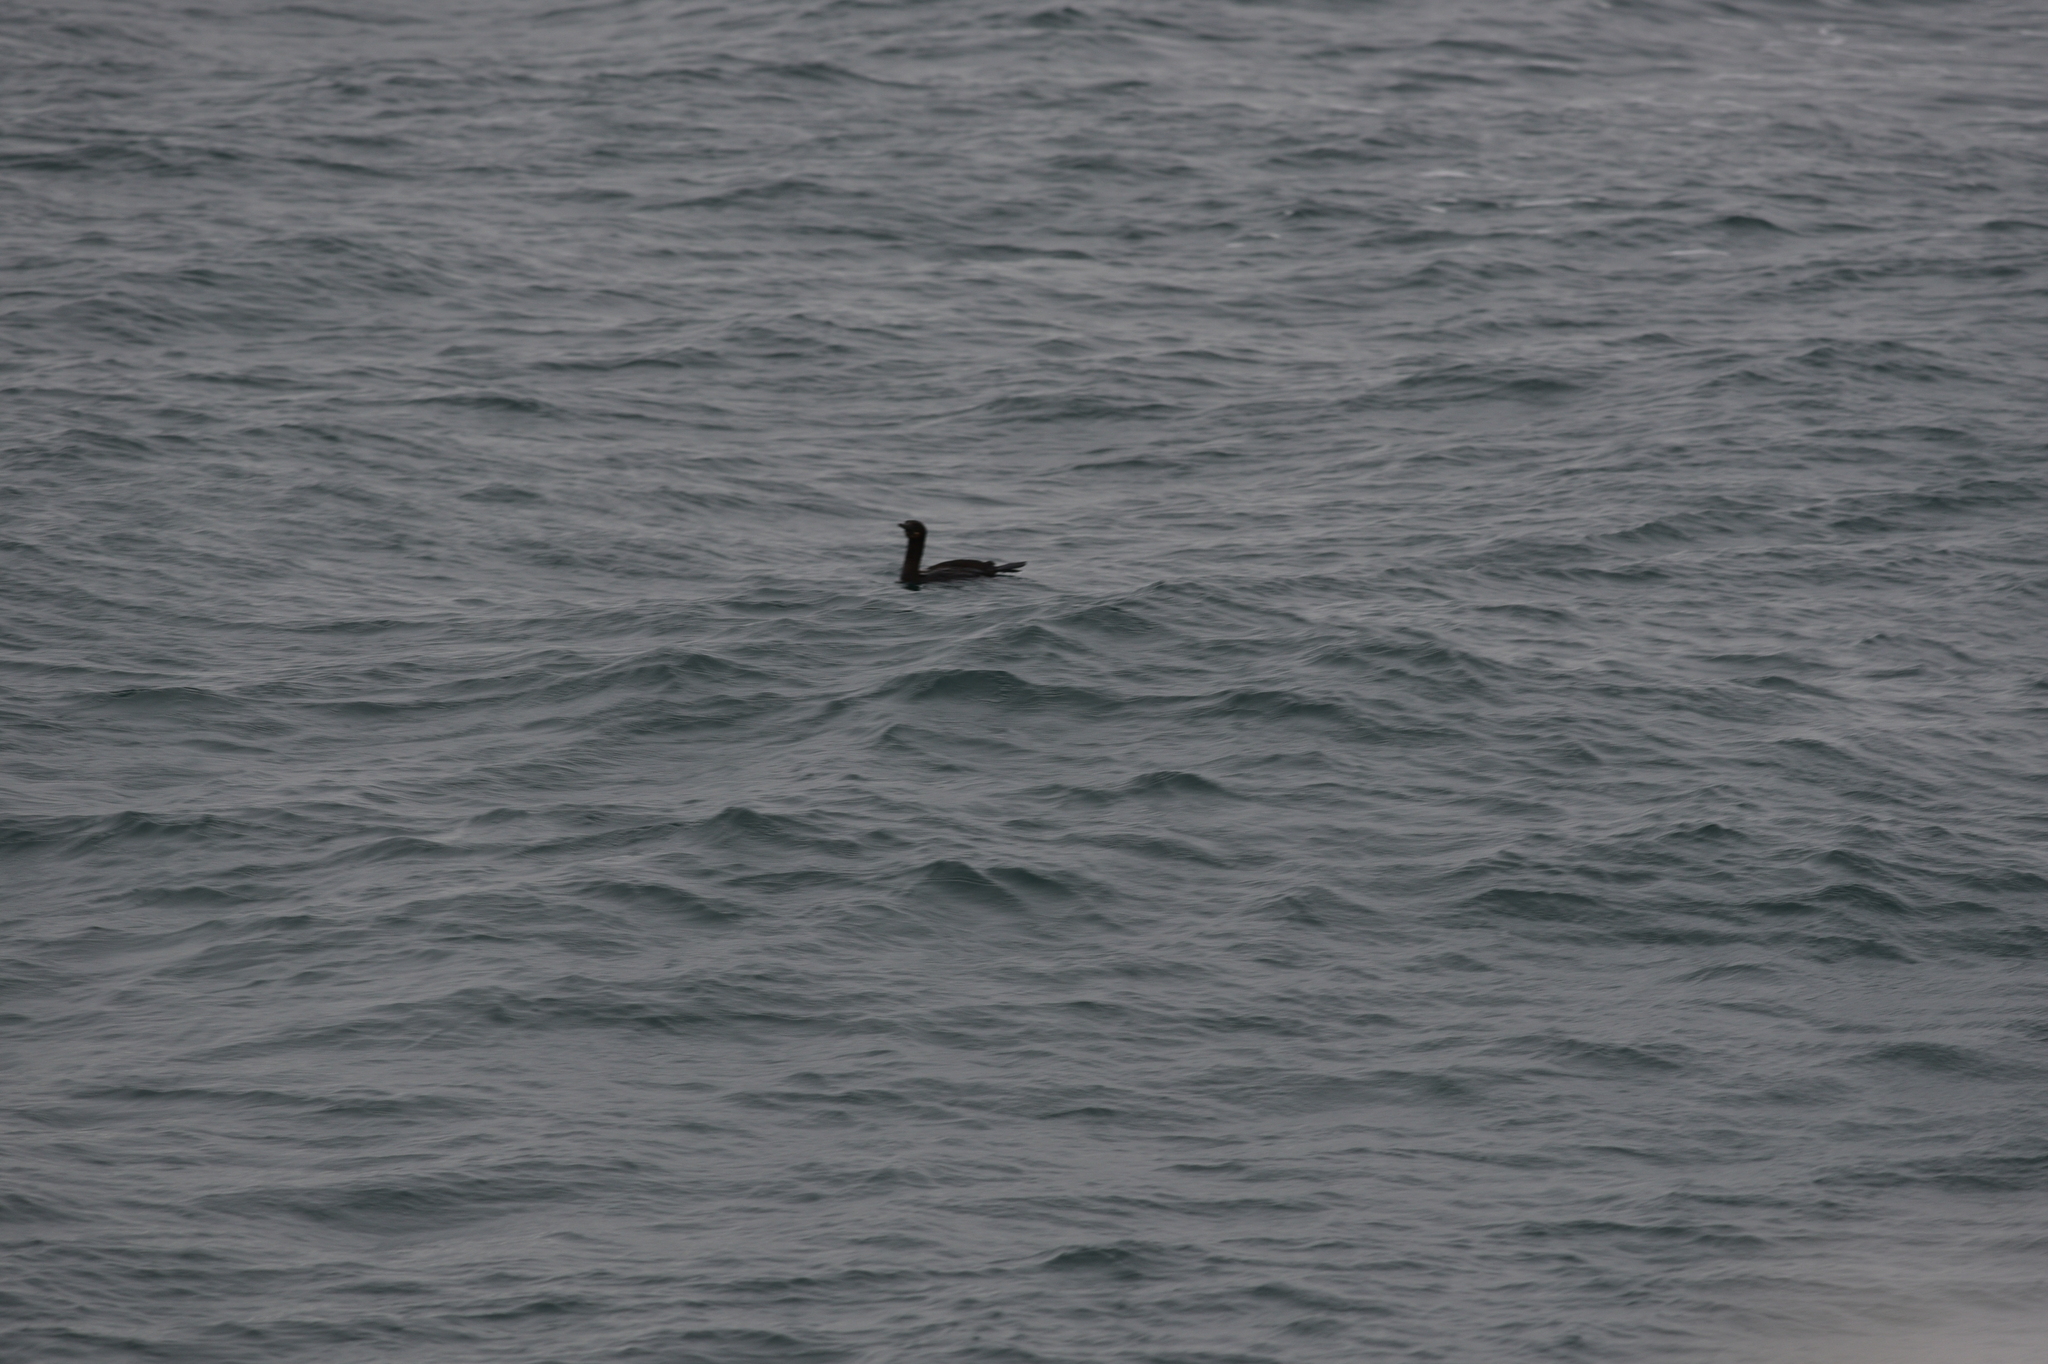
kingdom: Animalia
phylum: Chordata
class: Aves
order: Suliformes
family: Phalacrocoracidae
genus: Urile
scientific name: Urile penicillatus
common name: Brandt's cormorant
